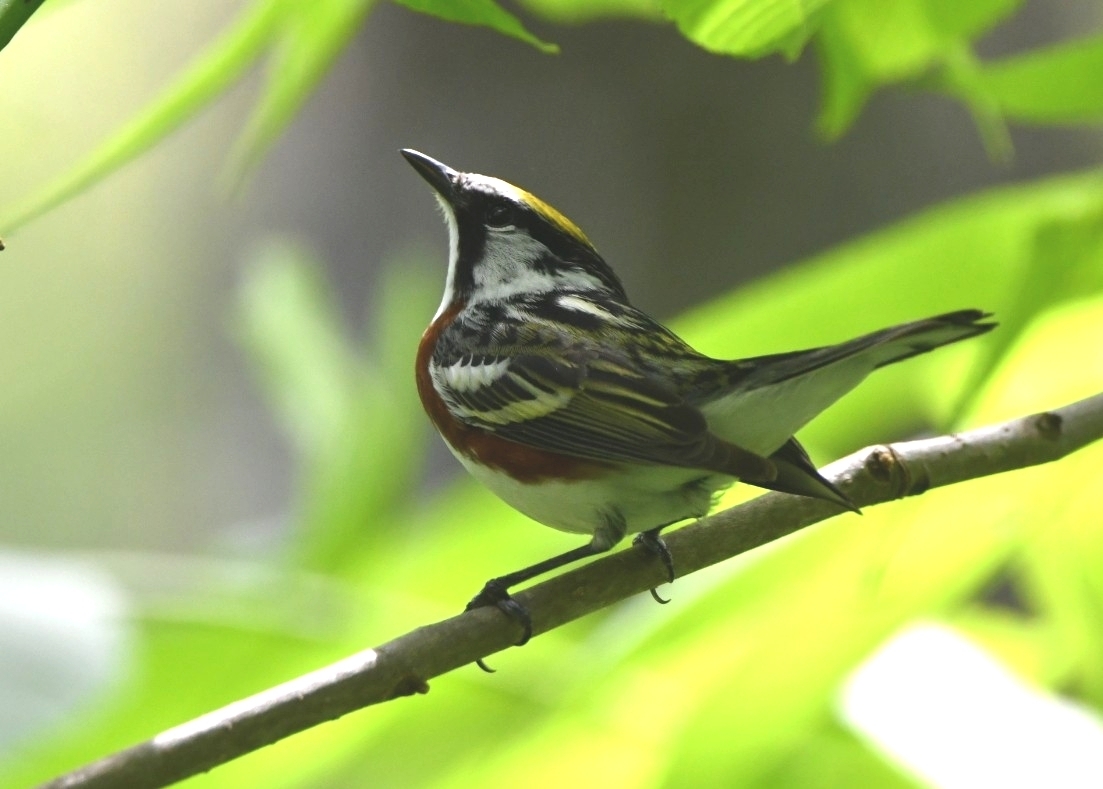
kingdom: Animalia
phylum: Chordata
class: Aves
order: Passeriformes
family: Parulidae
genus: Setophaga
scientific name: Setophaga pensylvanica
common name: Chestnut-sided warbler
